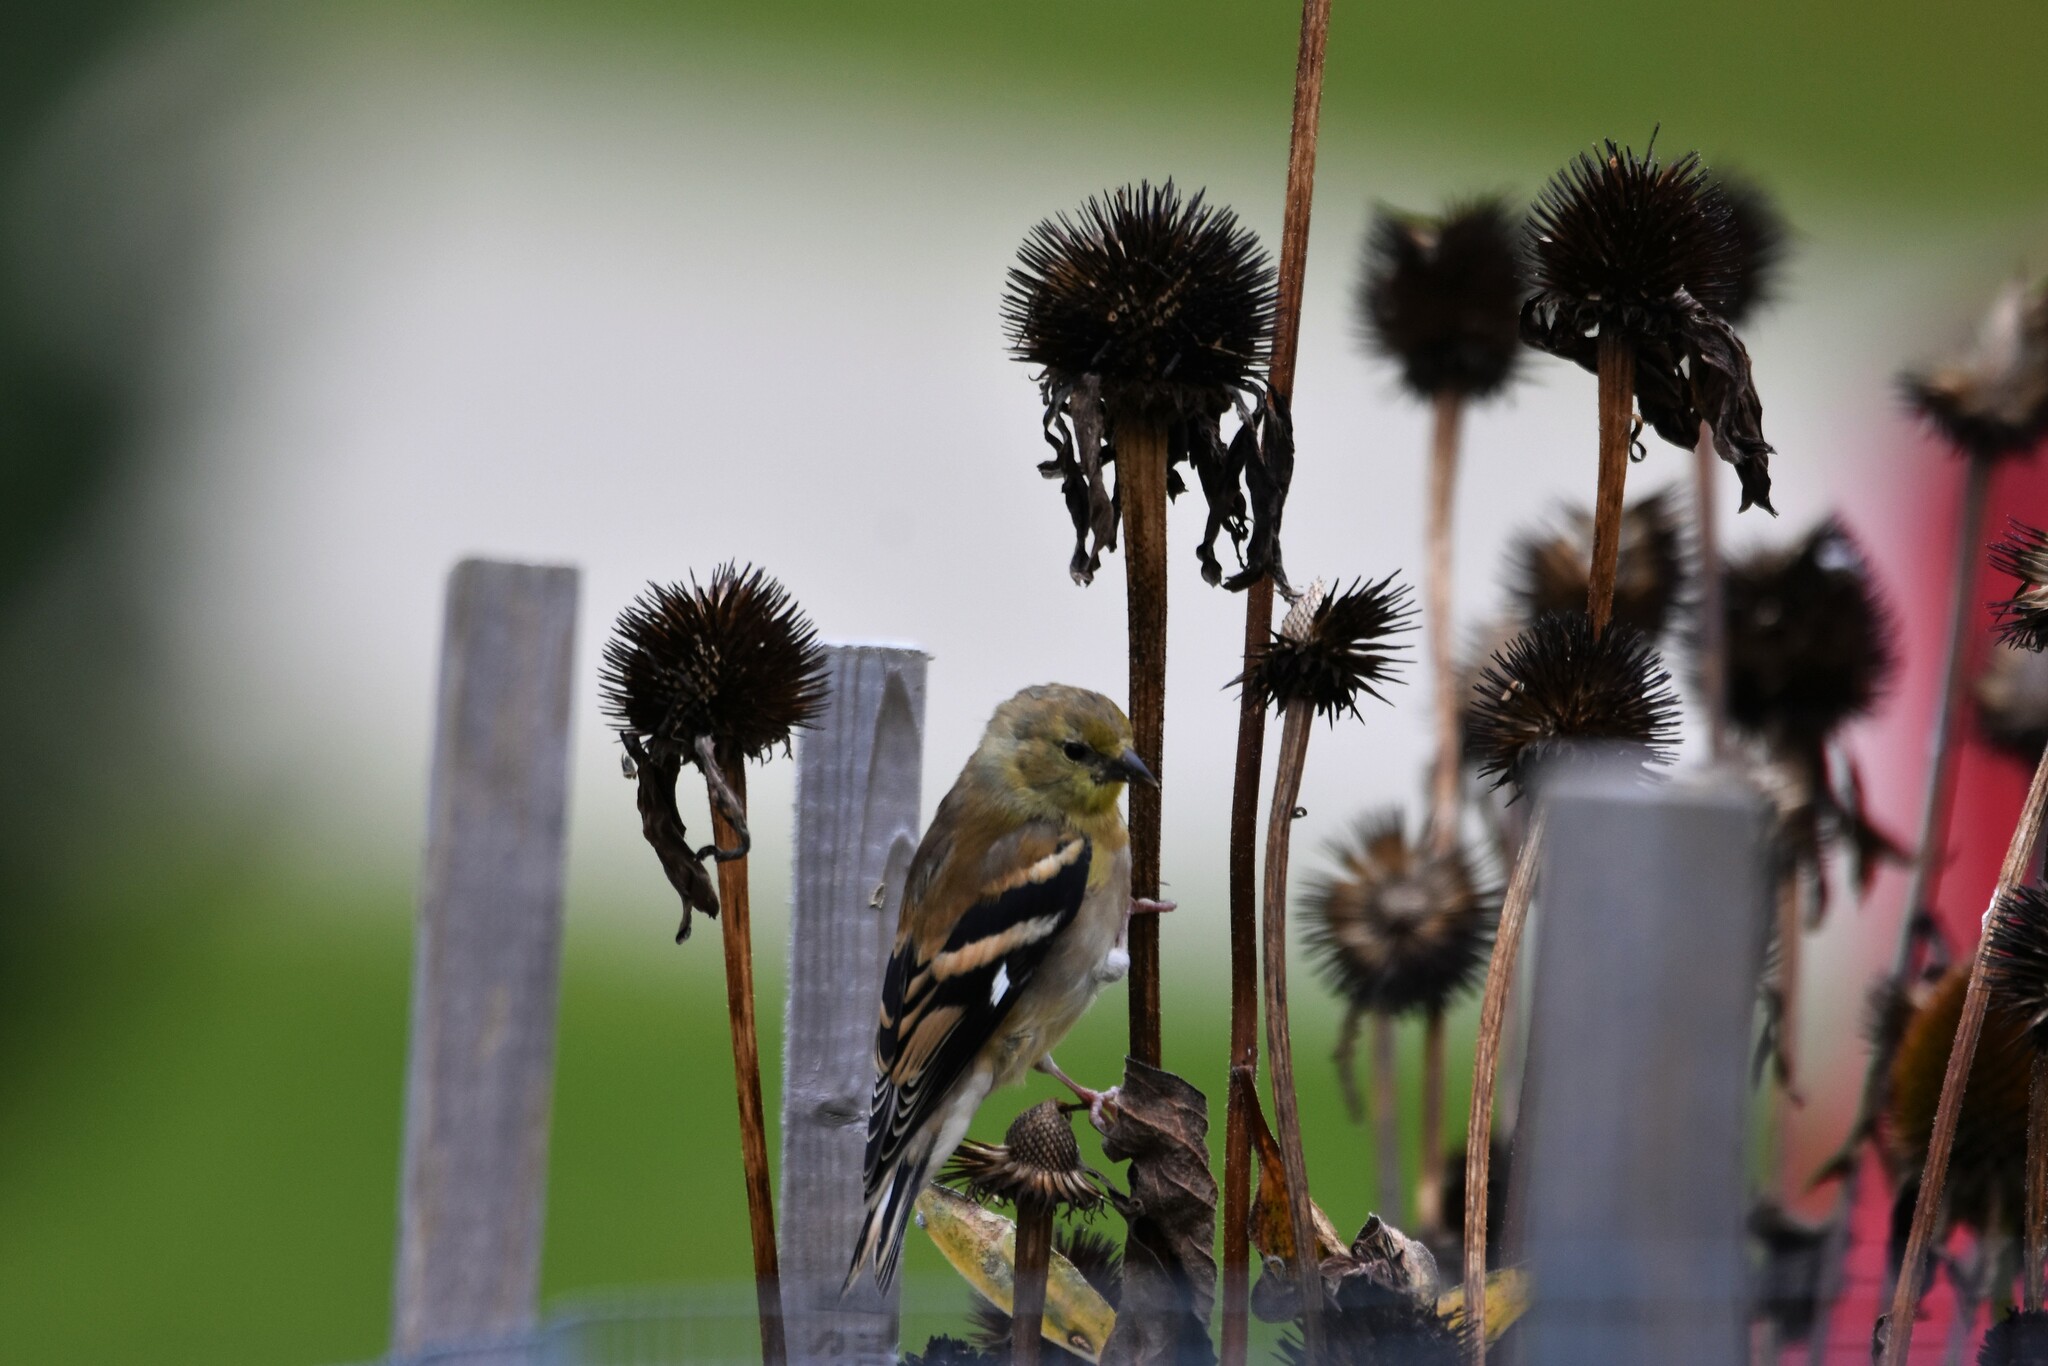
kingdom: Animalia
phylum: Chordata
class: Aves
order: Passeriformes
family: Fringillidae
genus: Spinus
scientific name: Spinus tristis
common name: American goldfinch
